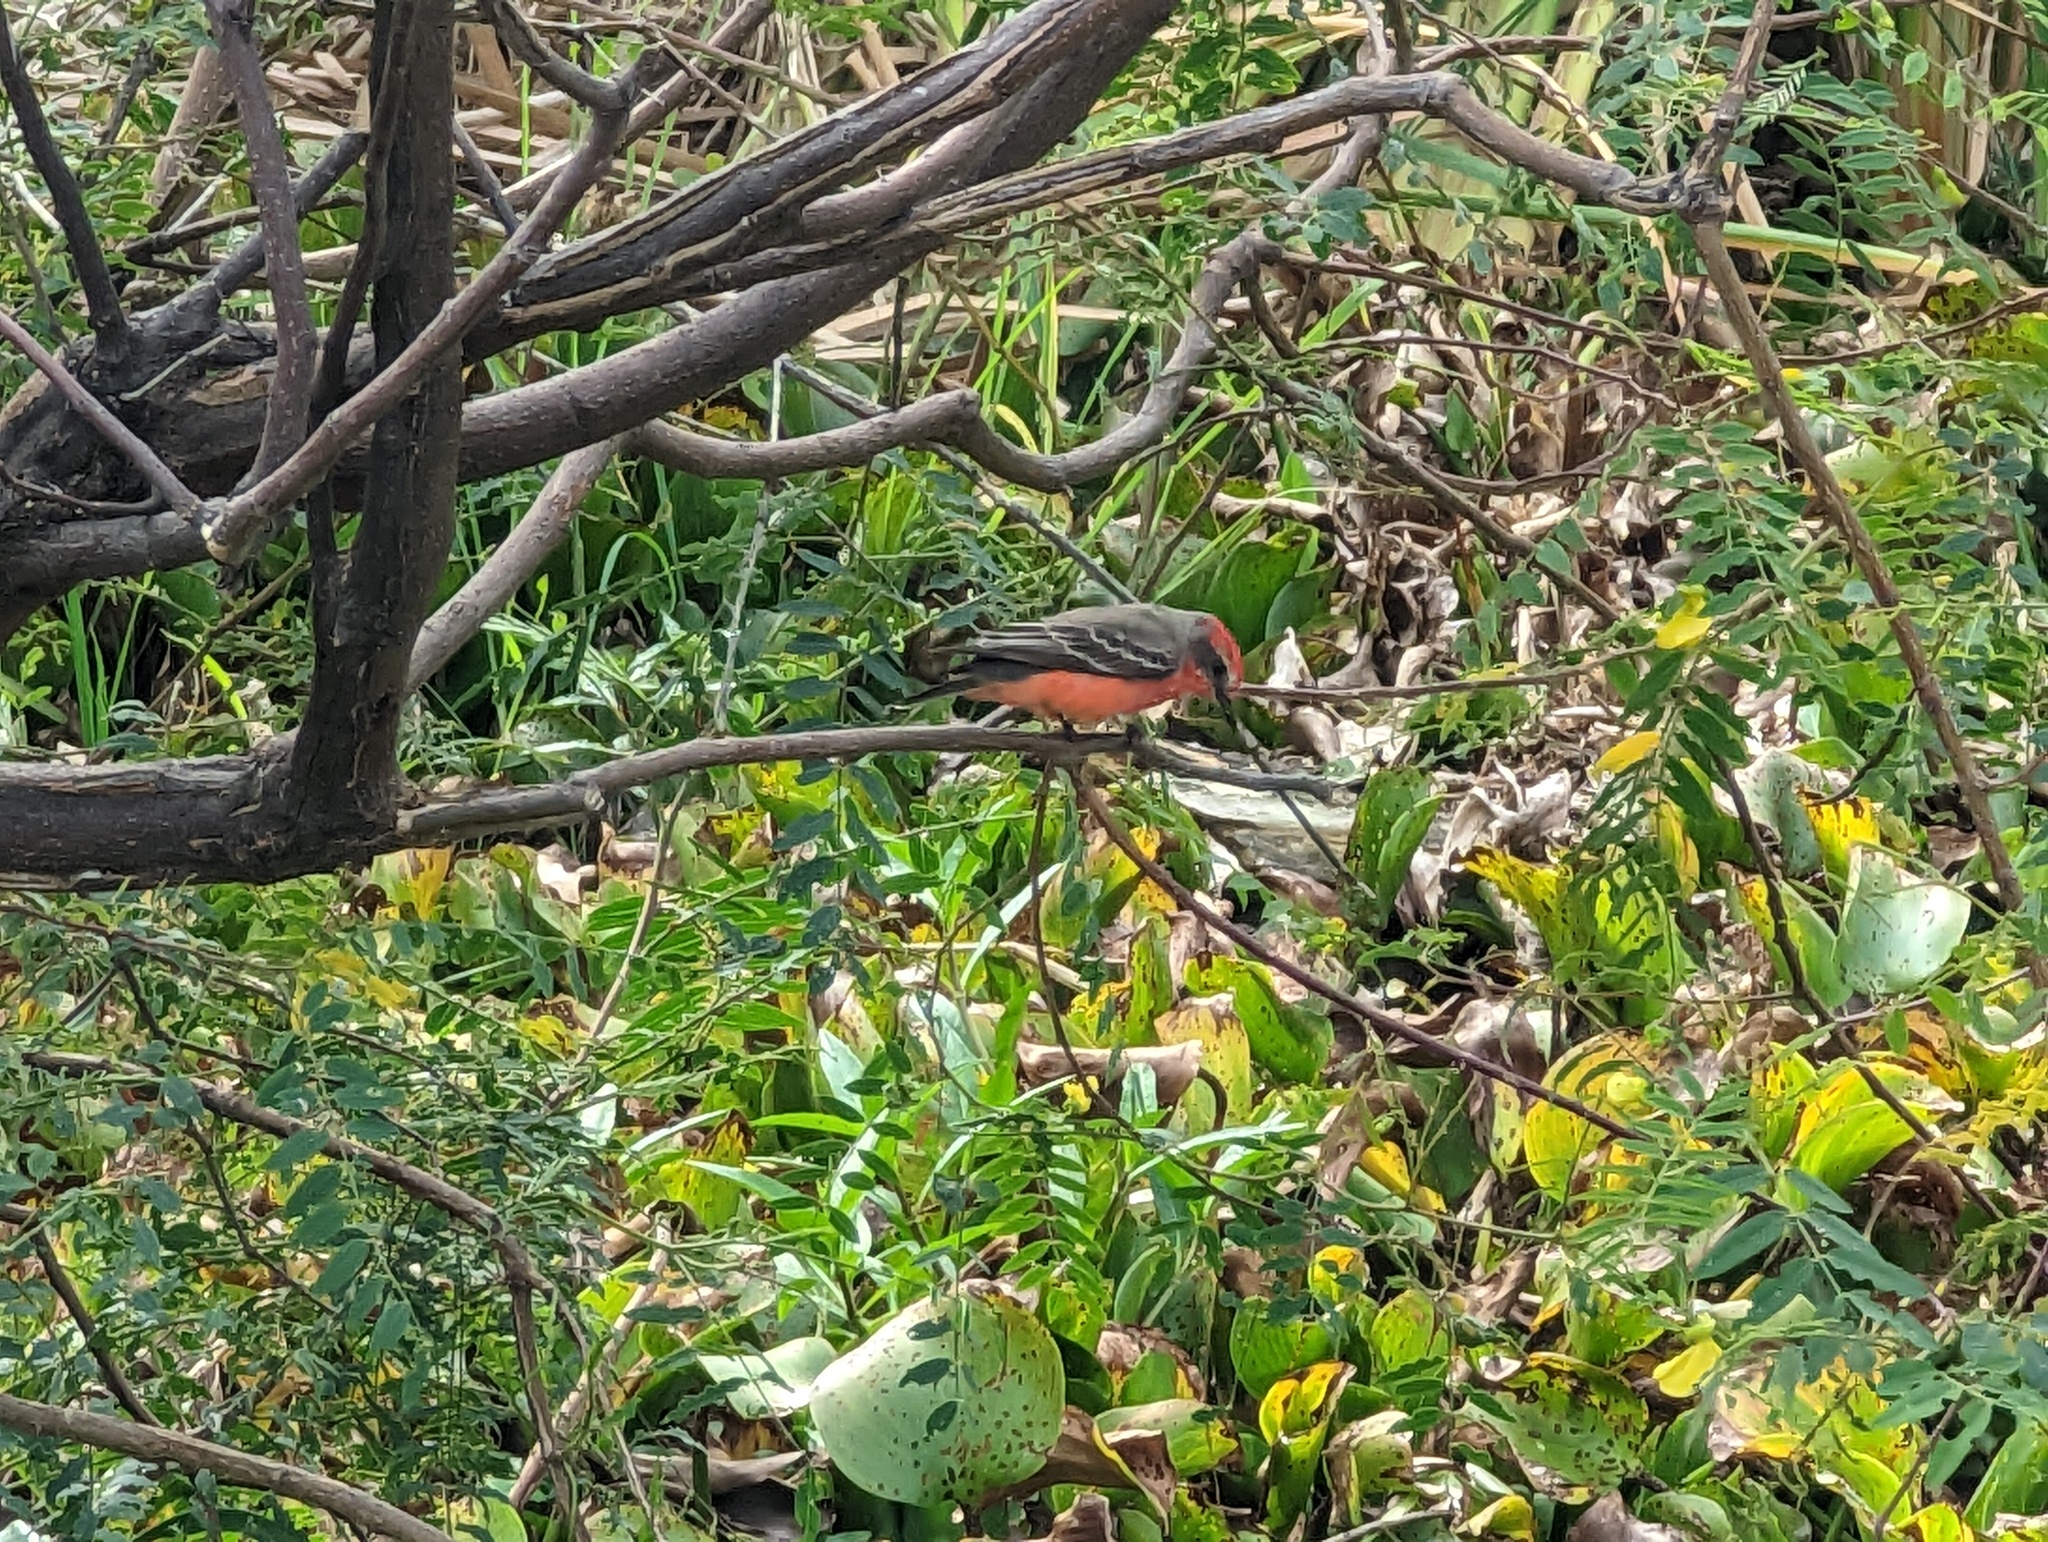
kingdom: Animalia
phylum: Chordata
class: Aves
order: Passeriformes
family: Tyrannidae
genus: Pyrocephalus
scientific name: Pyrocephalus rubinus
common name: Vermilion flycatcher
